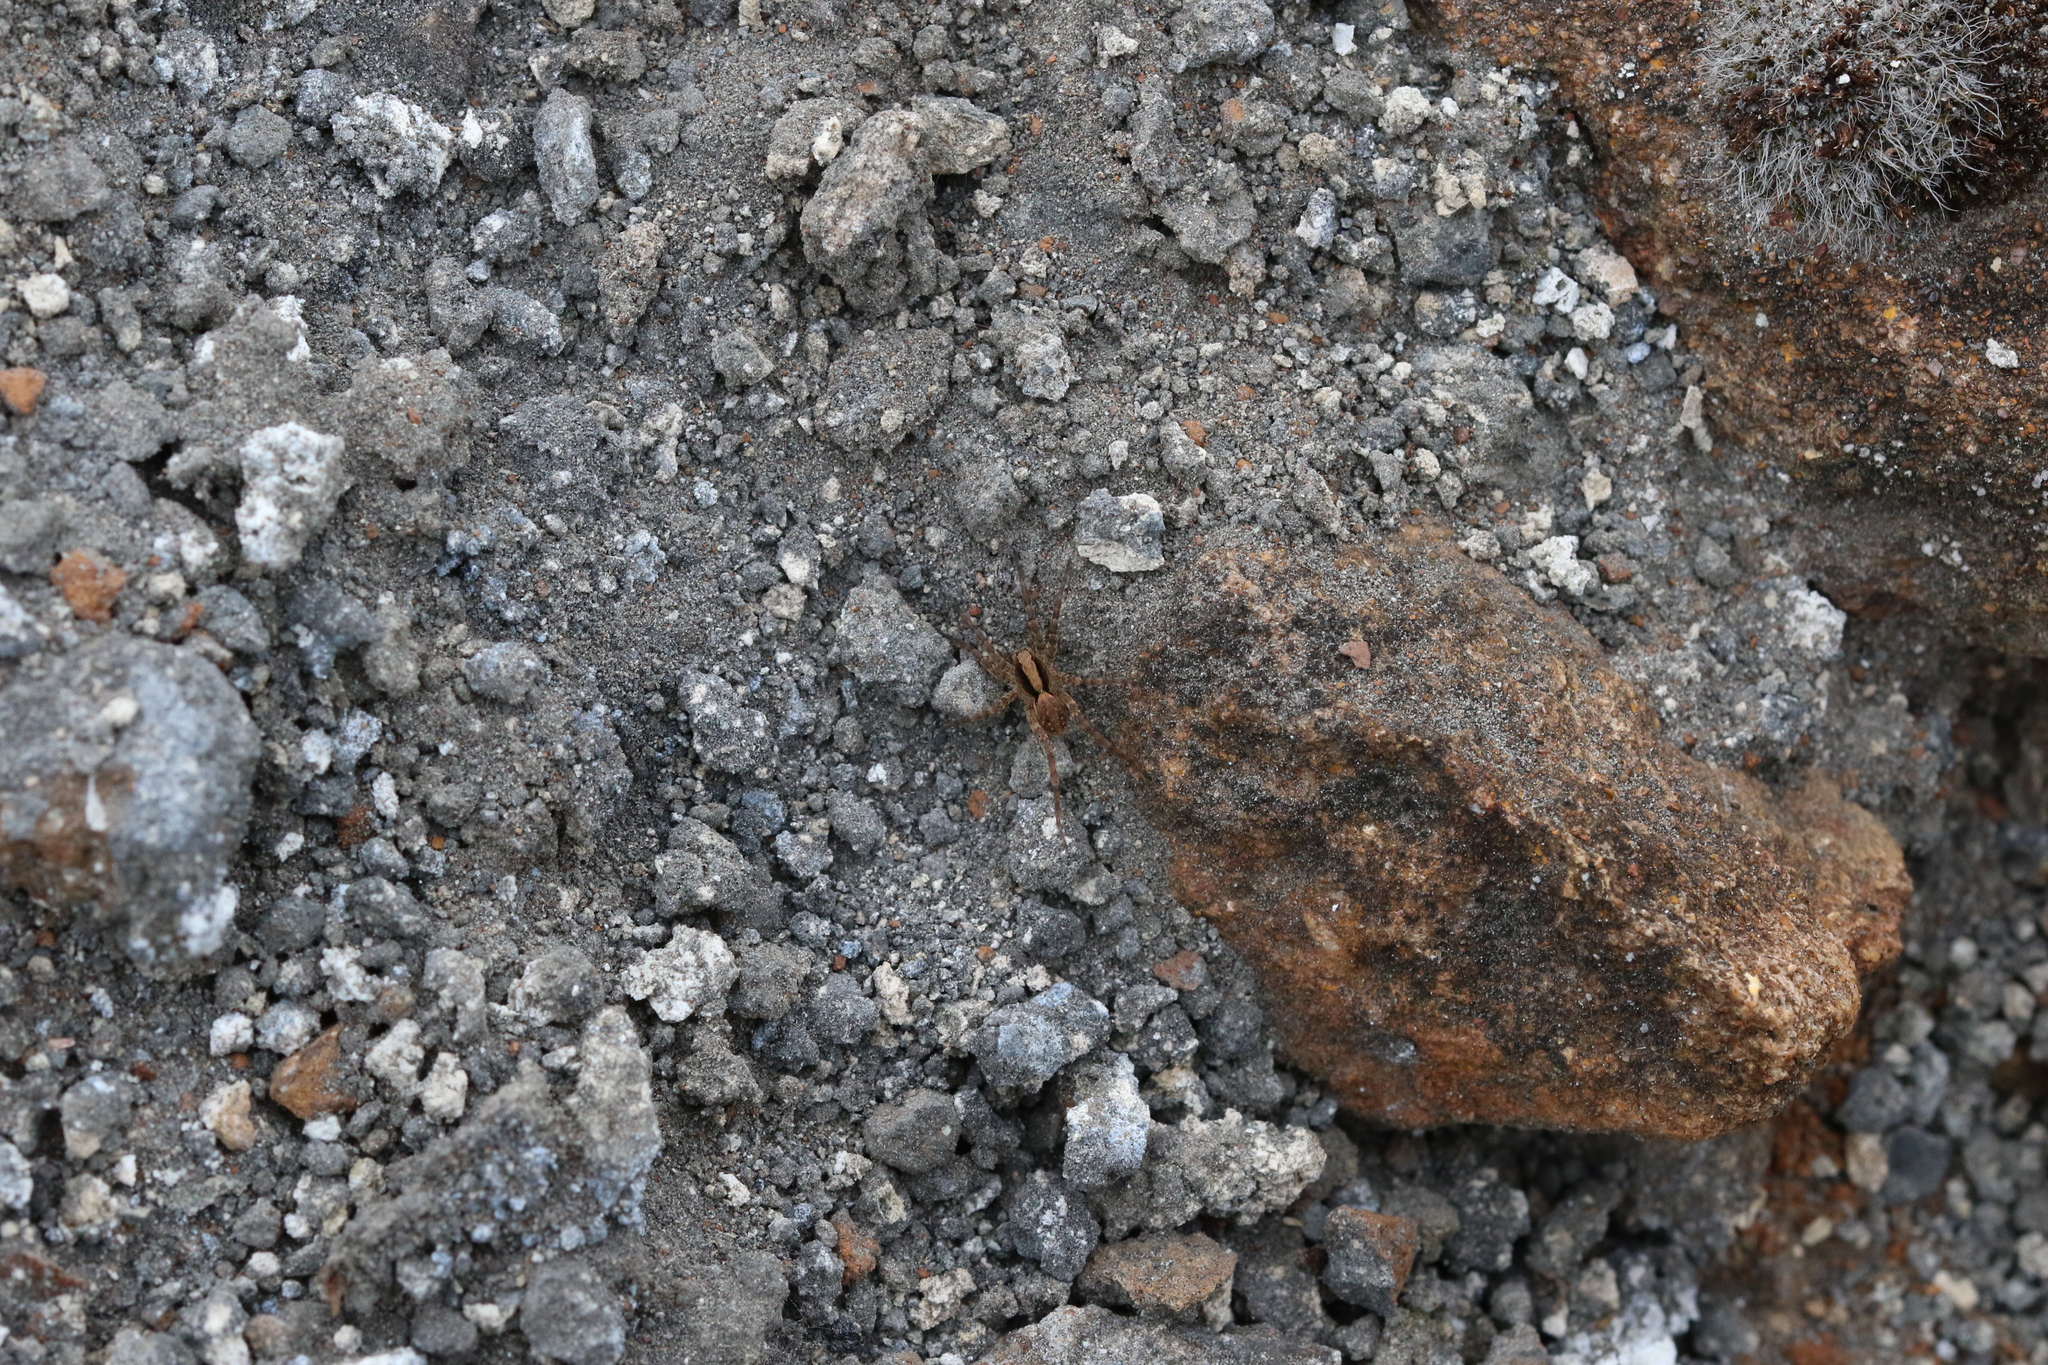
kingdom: Animalia
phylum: Arthropoda
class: Arachnida
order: Araneae
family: Lycosidae
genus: Xerolycosa
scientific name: Xerolycosa nemoralis
